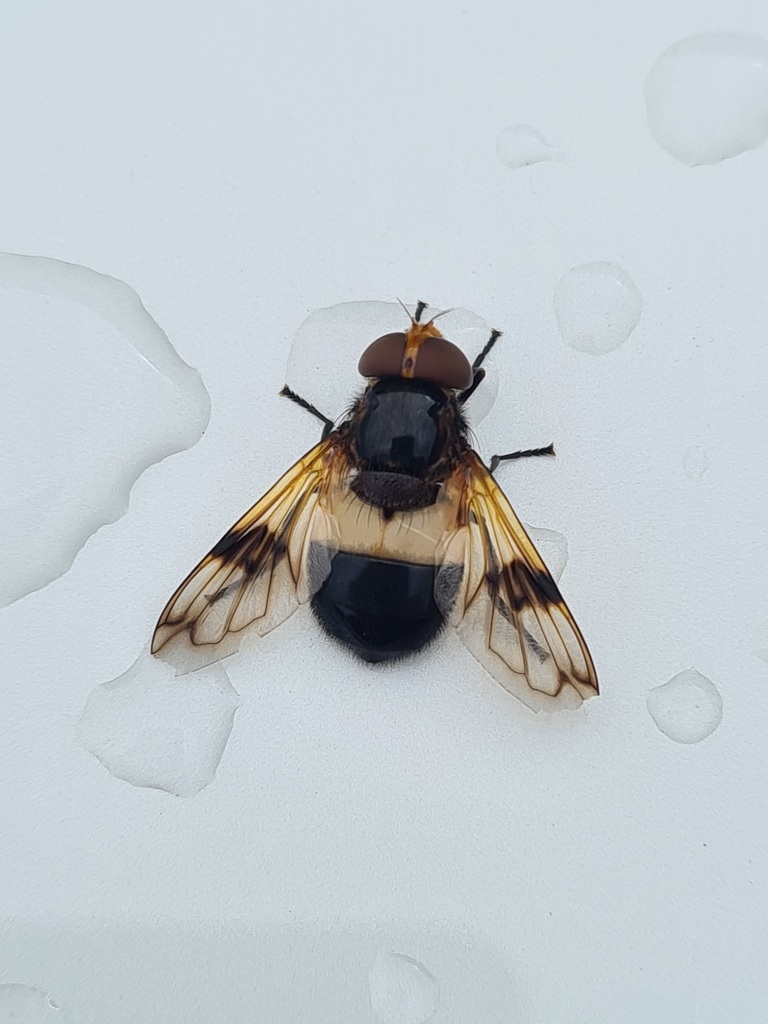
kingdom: Animalia
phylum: Arthropoda
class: Insecta
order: Diptera
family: Syrphidae
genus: Volucella
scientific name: Volucella pellucens
